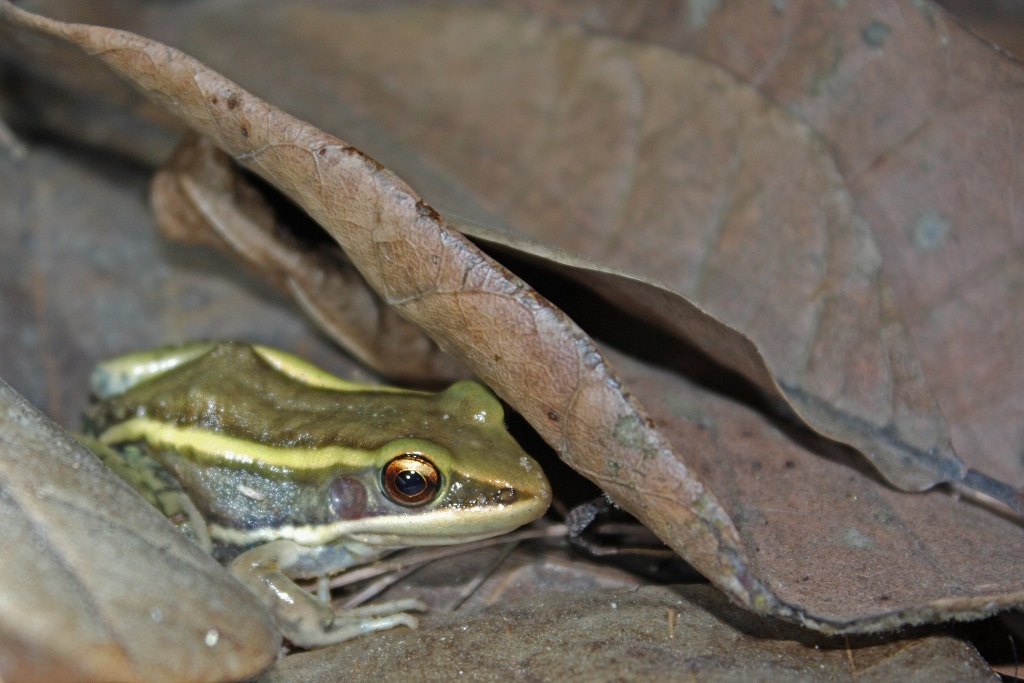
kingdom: Animalia
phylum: Chordata
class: Amphibia
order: Anura
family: Ranidae
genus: Amnirana
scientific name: Amnirana galamensis
